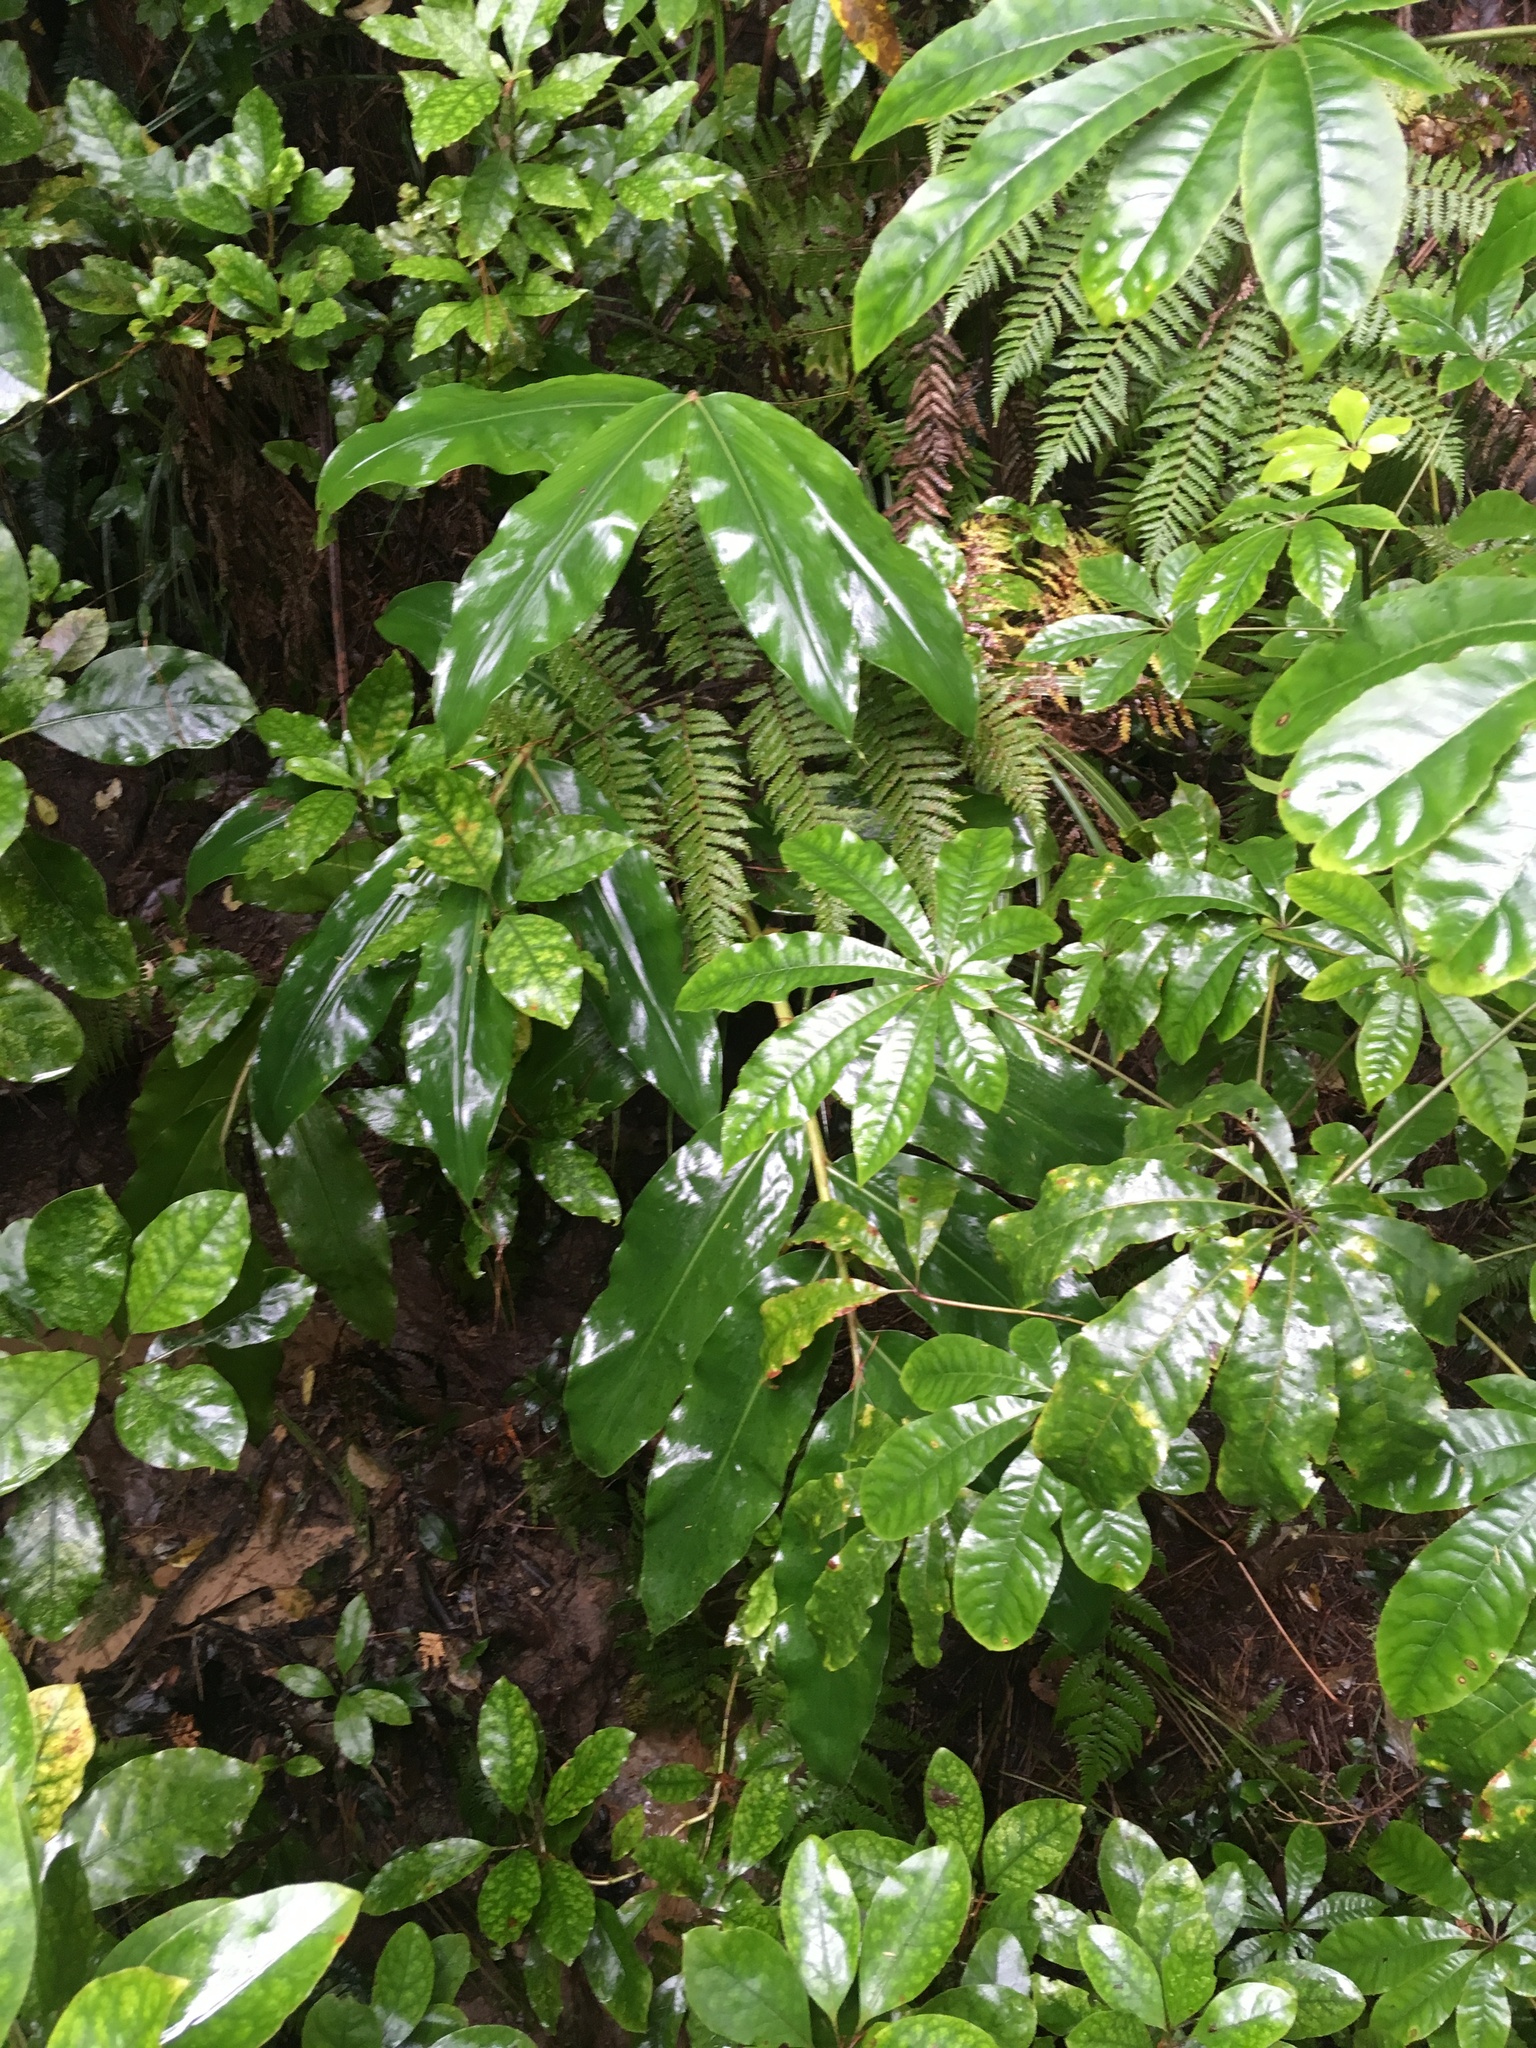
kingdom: Plantae
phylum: Tracheophyta
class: Magnoliopsida
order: Apiales
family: Araliaceae
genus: Schefflera
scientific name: Schefflera digitata
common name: Pate
